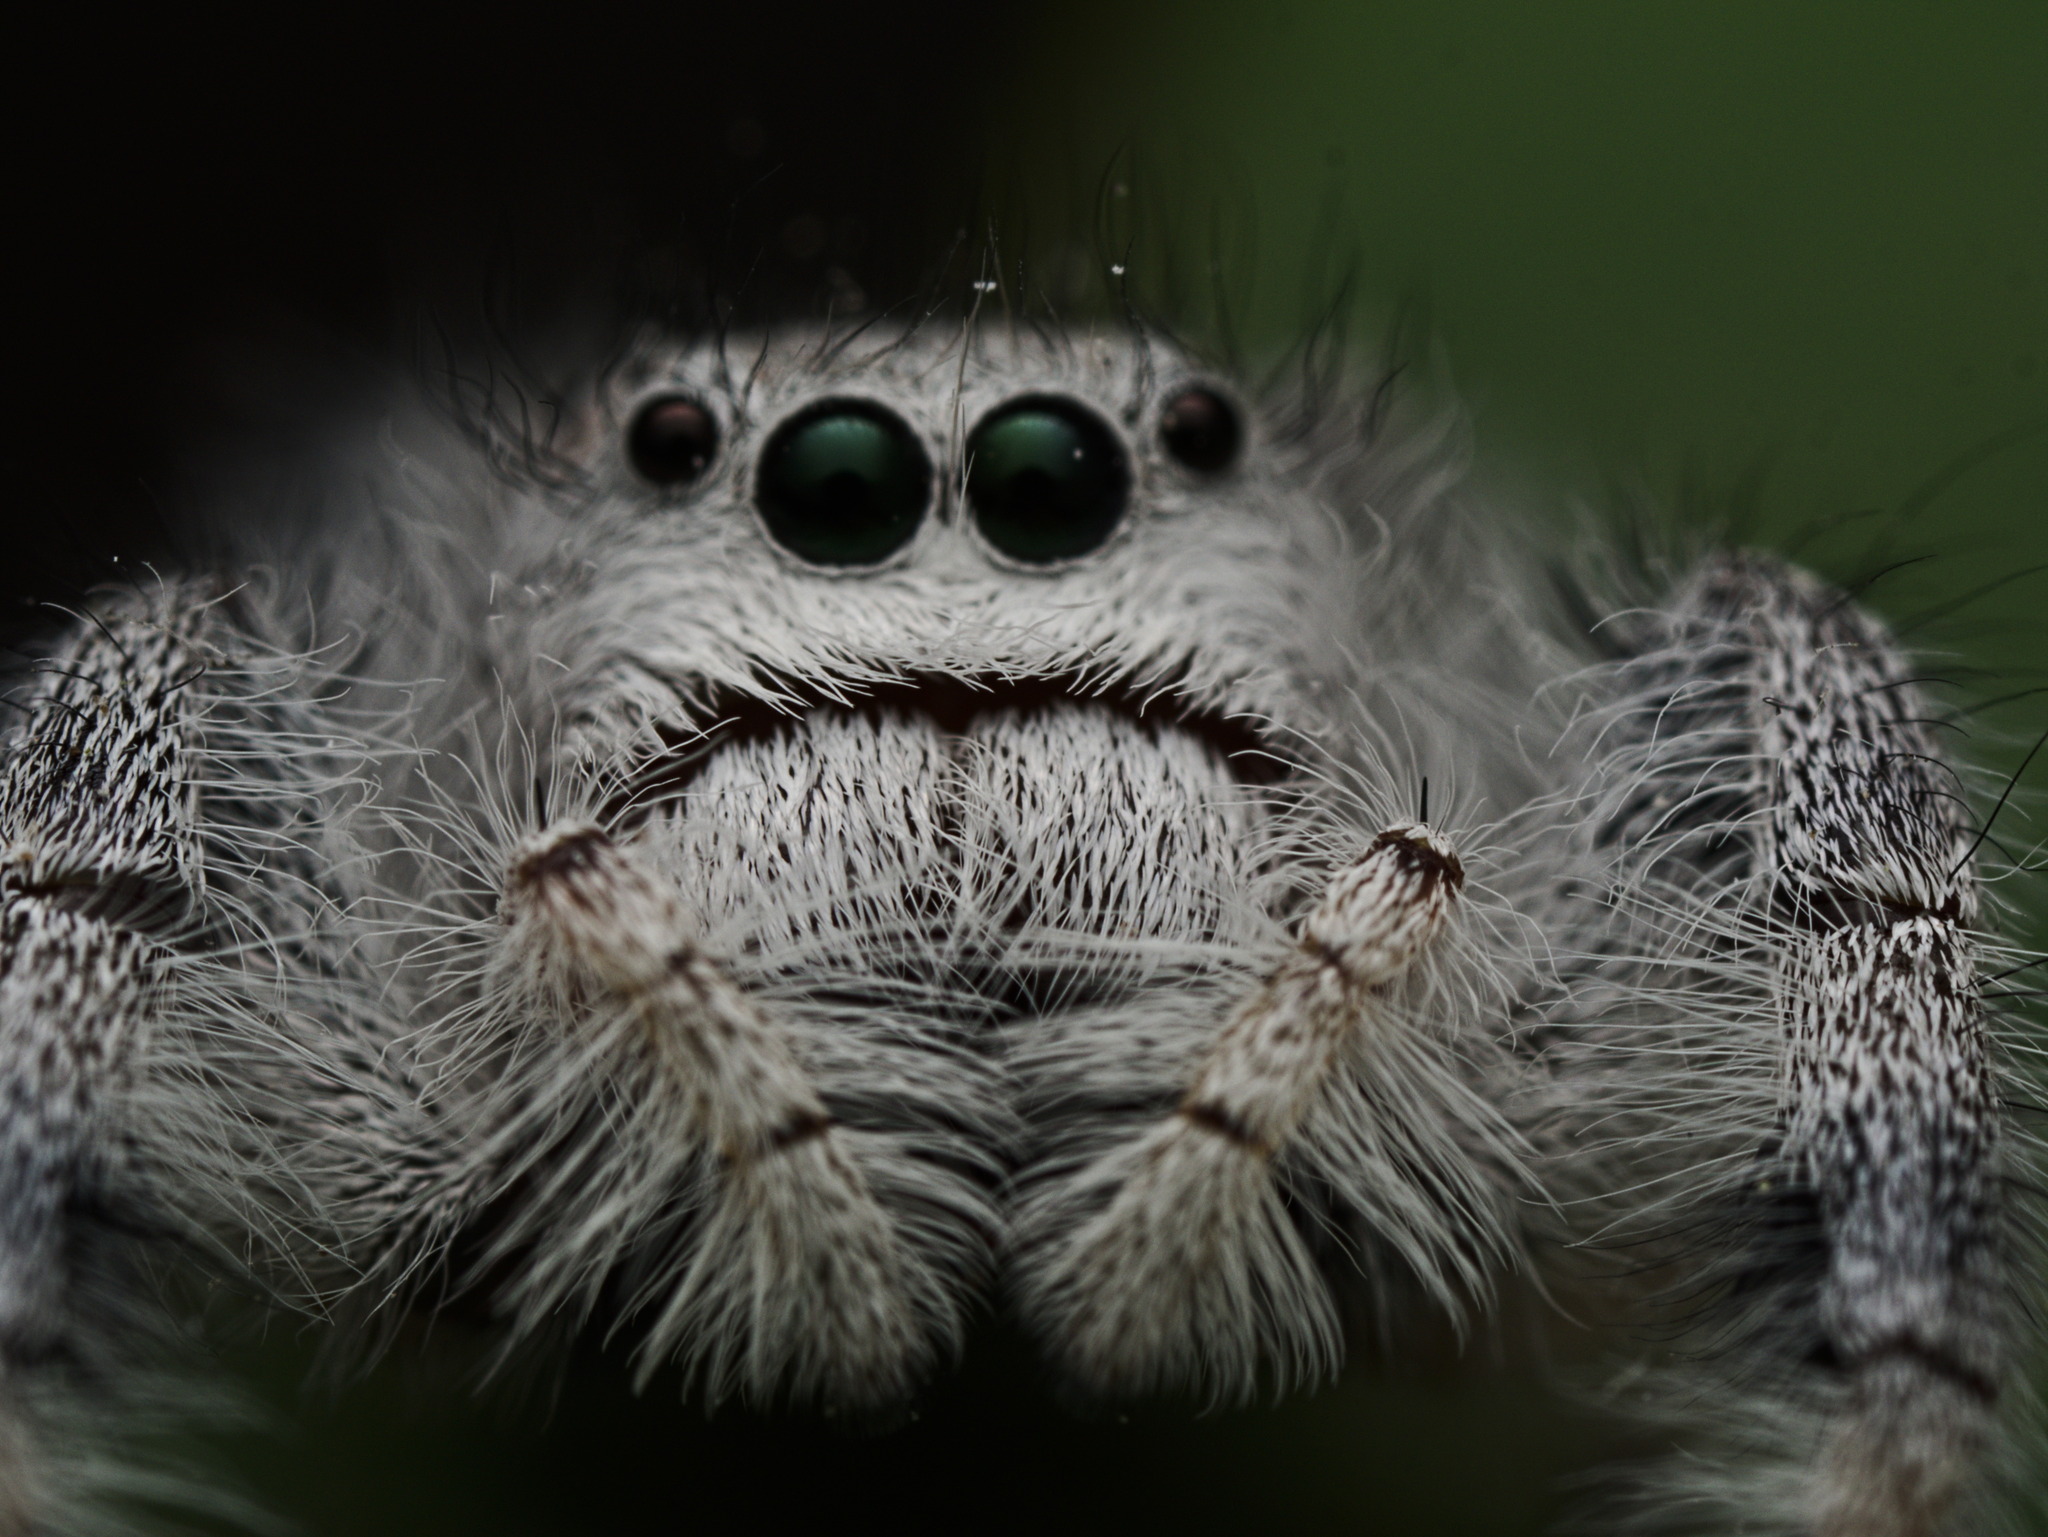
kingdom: Animalia
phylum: Arthropoda
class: Arachnida
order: Araneae
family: Salticidae
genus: Paraphidippus
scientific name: Paraphidippus fartilis
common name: Jumping spiders
